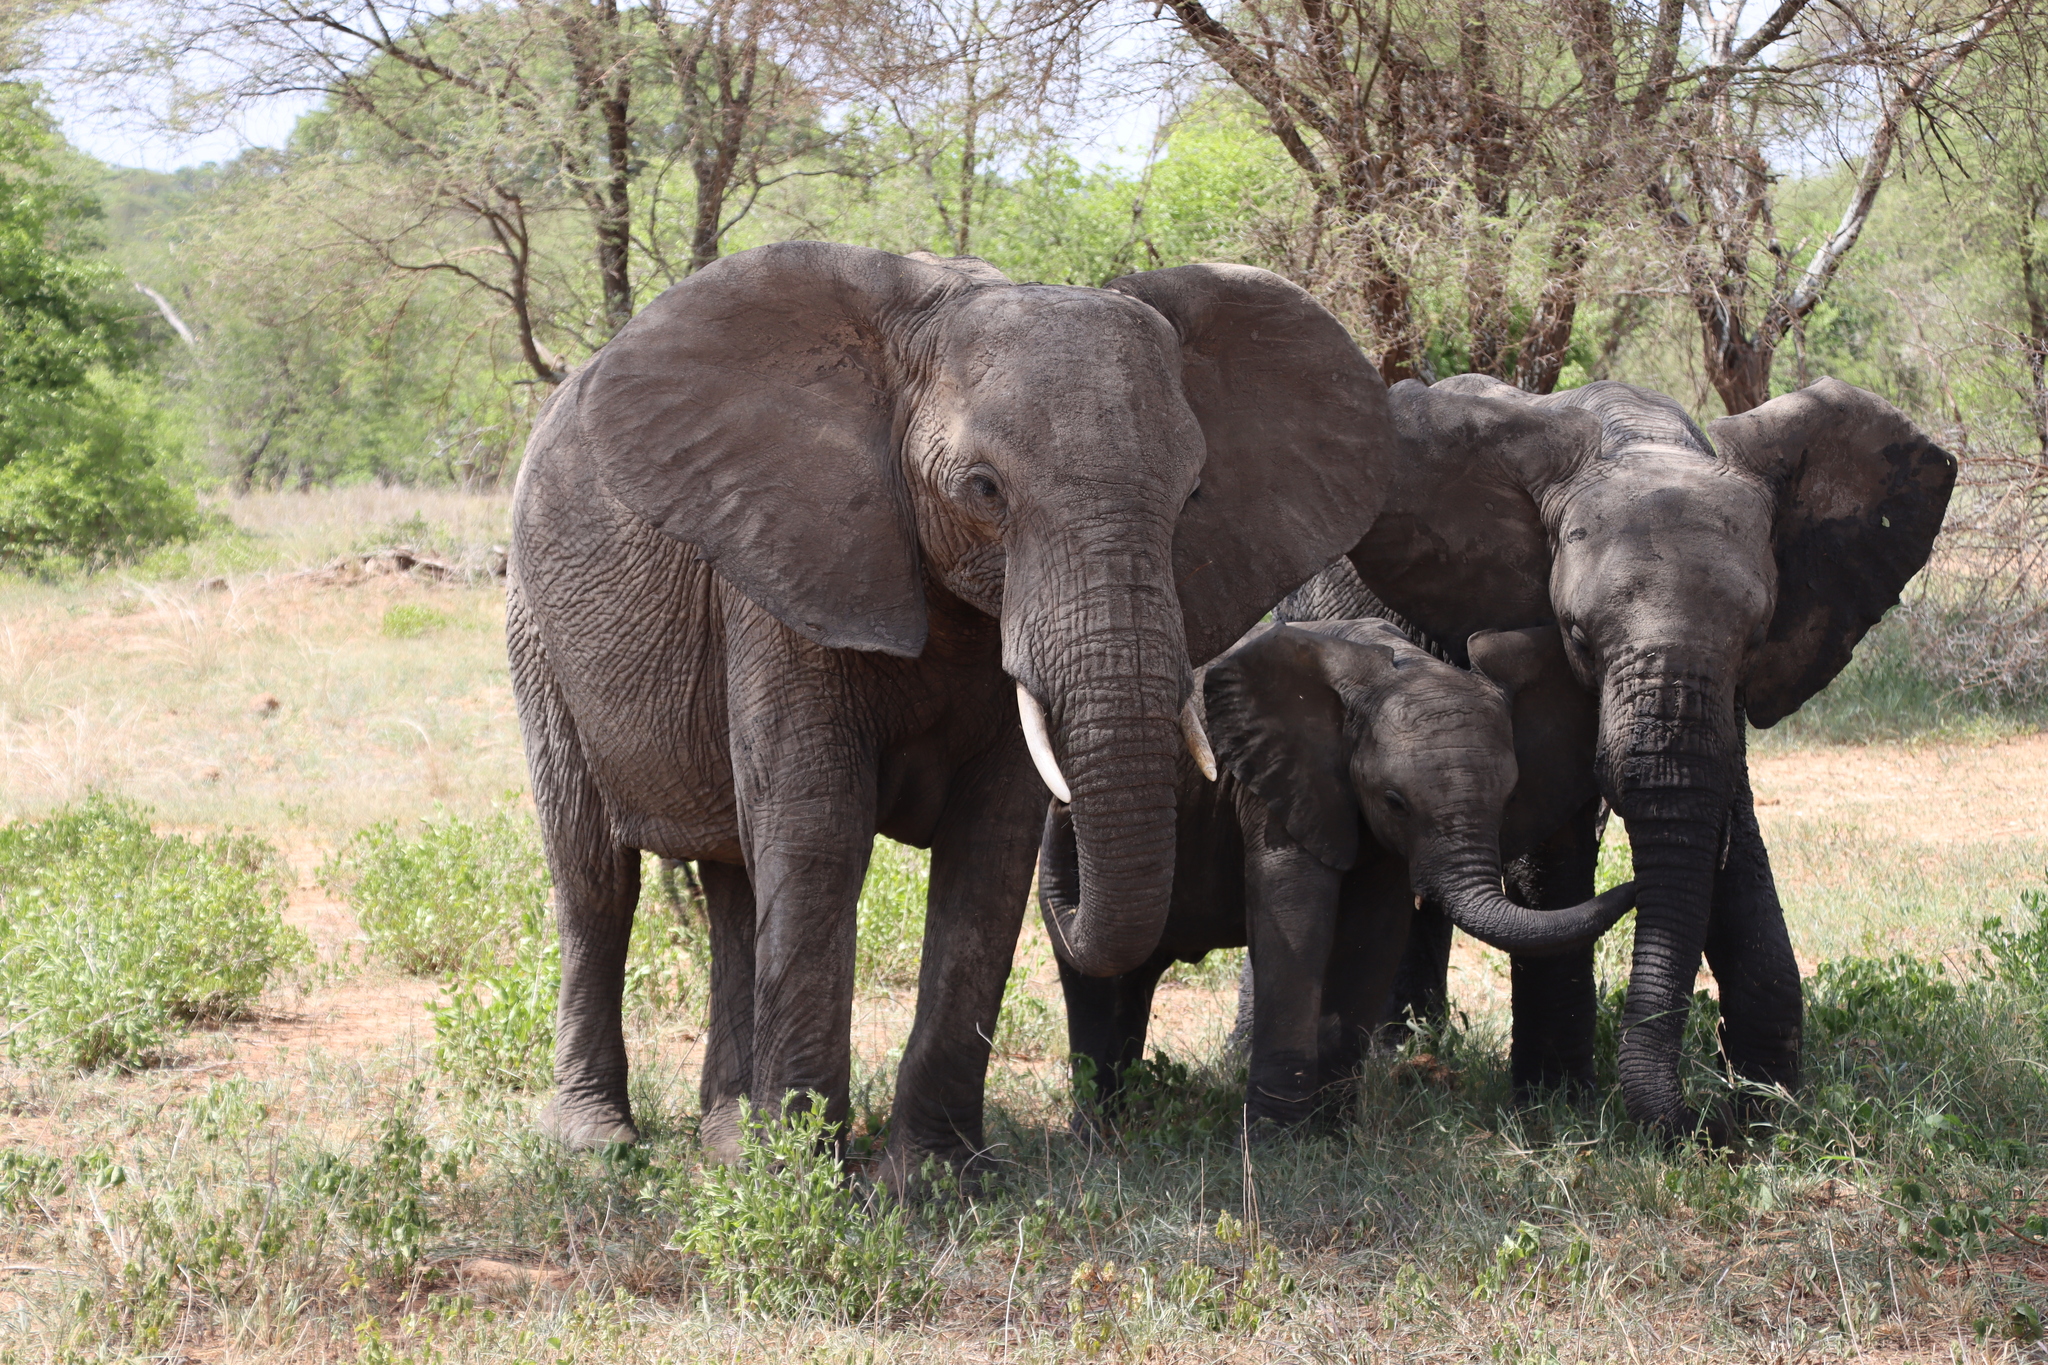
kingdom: Animalia
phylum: Chordata
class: Mammalia
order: Proboscidea
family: Elephantidae
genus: Loxodonta
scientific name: Loxodonta africana
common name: African elephant
